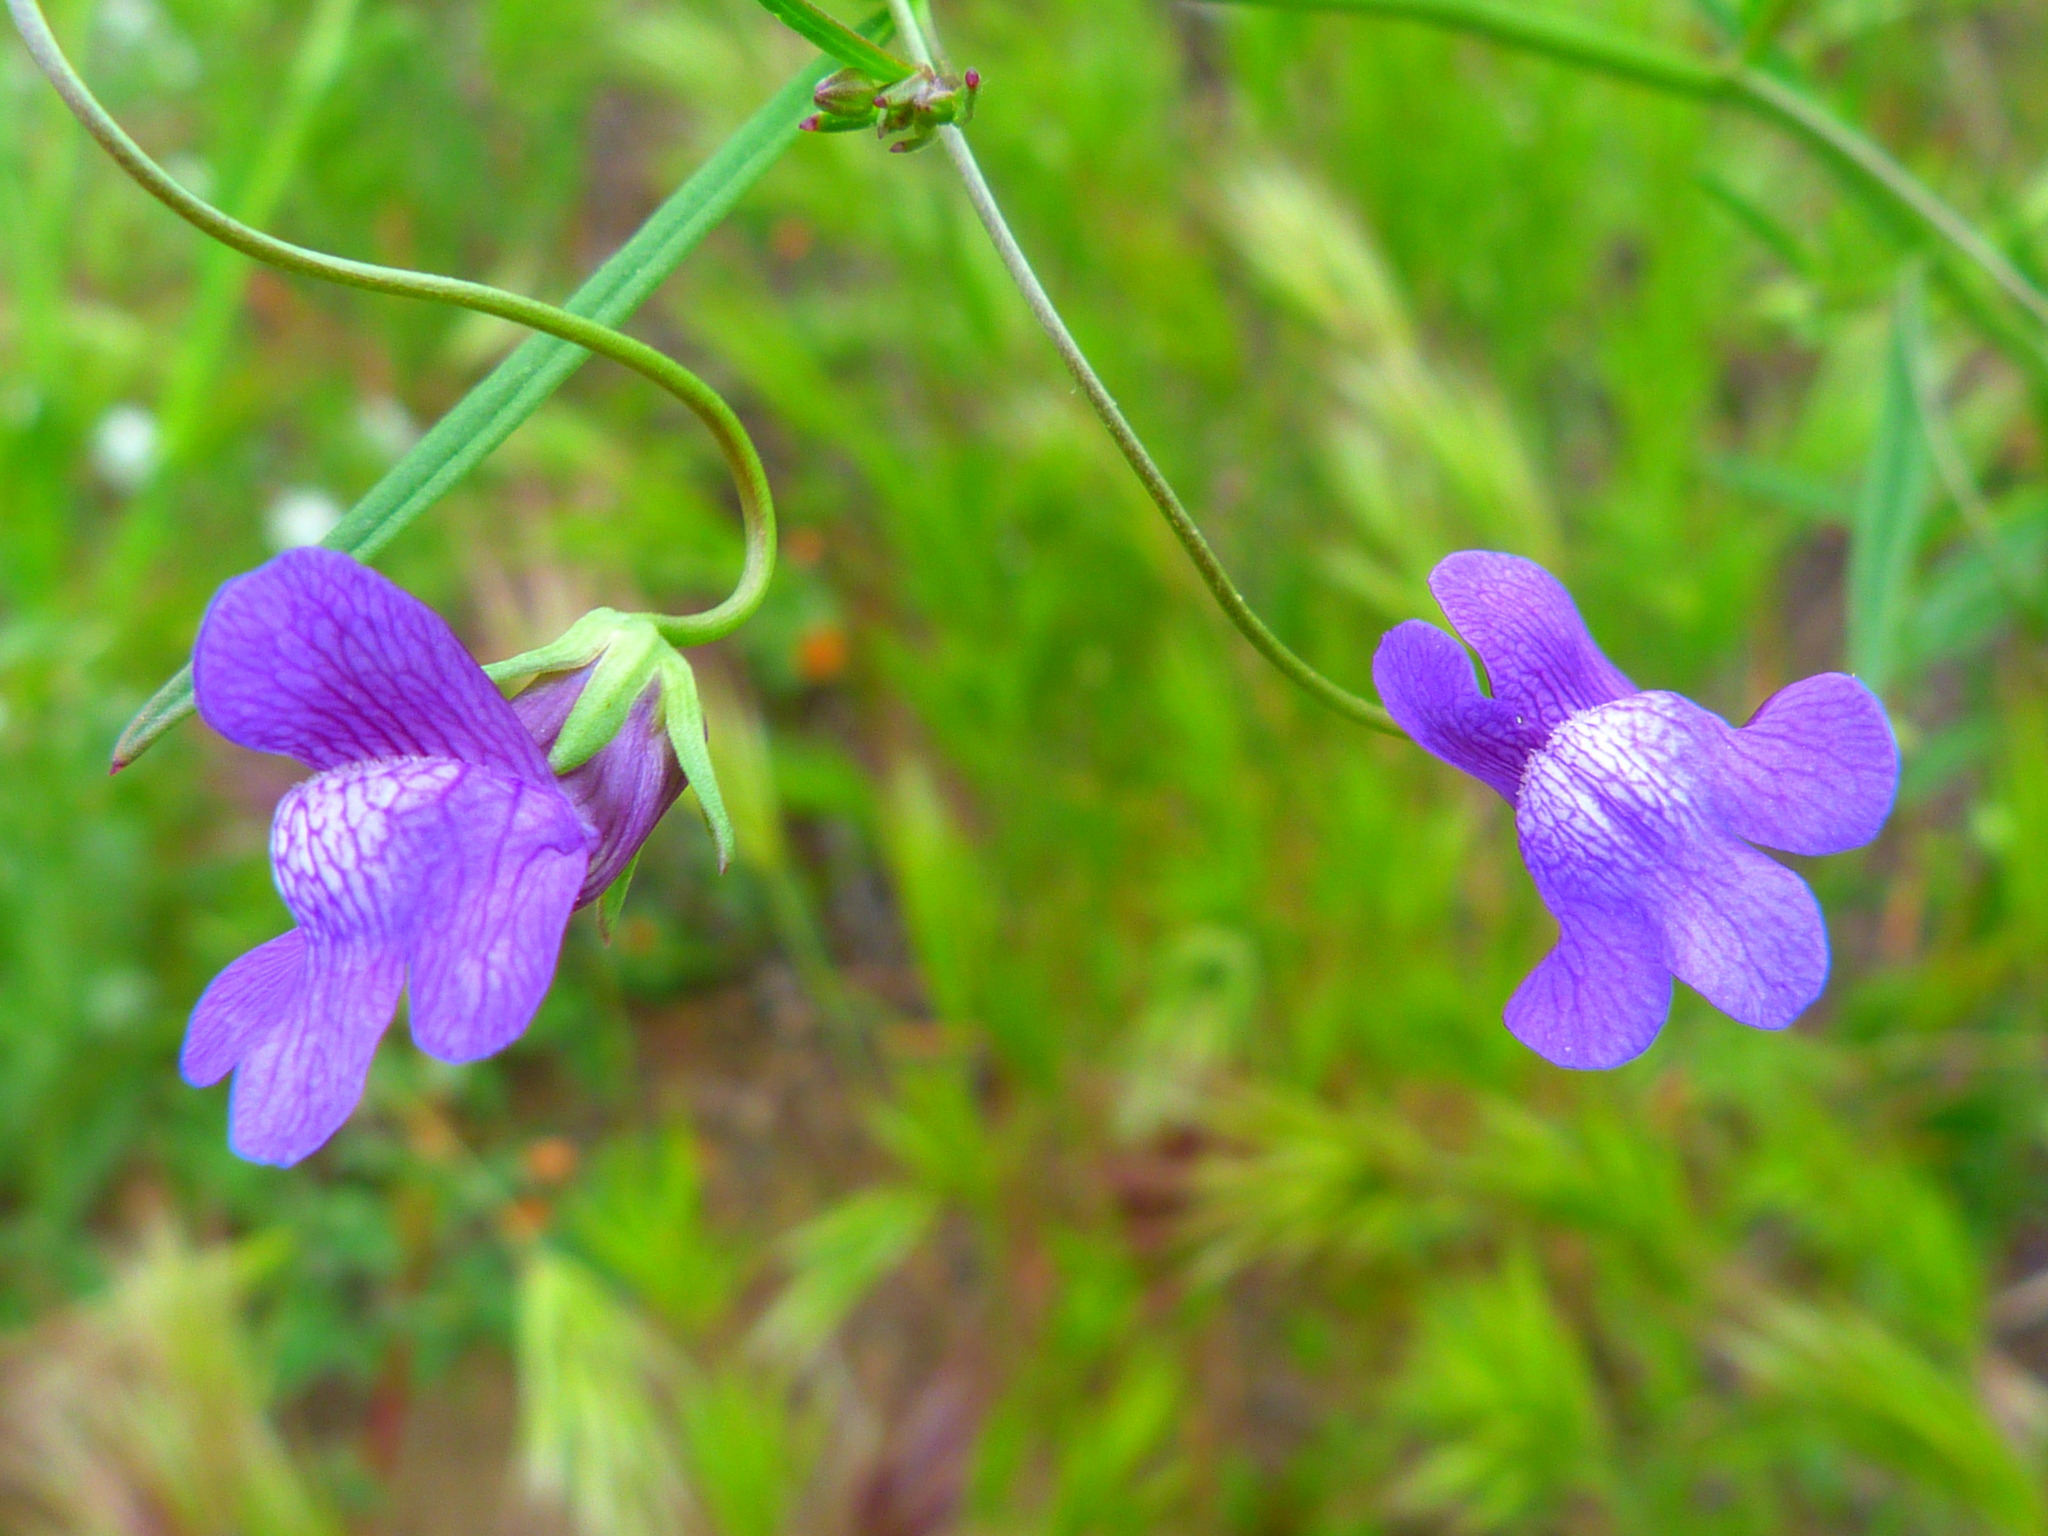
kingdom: Plantae
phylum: Tracheophyta
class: Magnoliopsida
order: Lamiales
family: Plantaginaceae
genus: Neogaerrhinum
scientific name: Neogaerrhinum strictum
